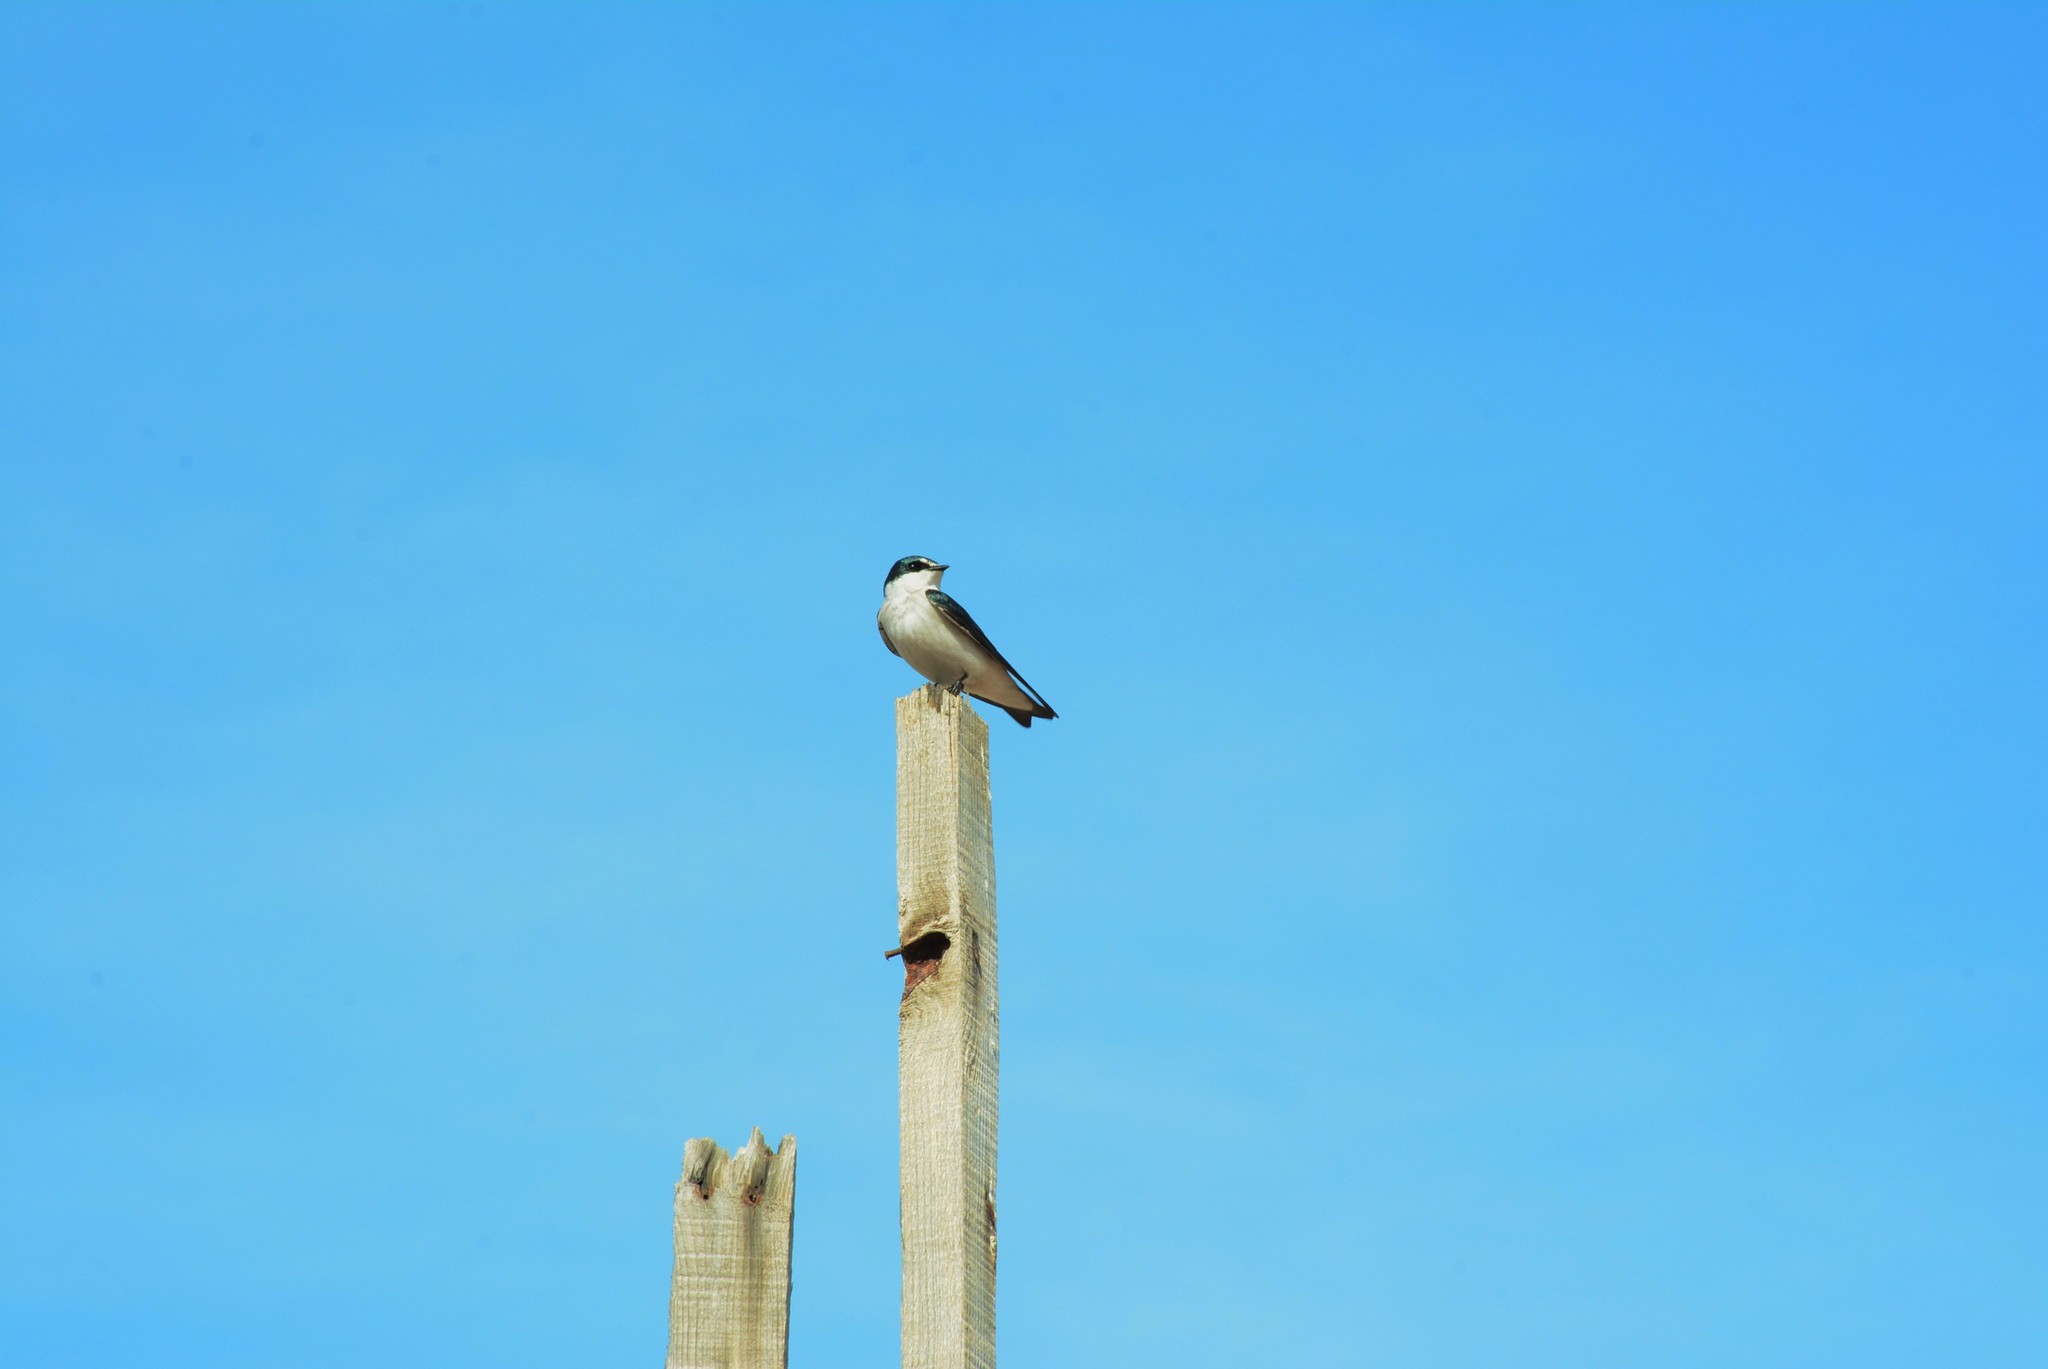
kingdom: Animalia
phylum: Chordata
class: Aves
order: Passeriformes
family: Hirundinidae
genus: Tachycineta
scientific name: Tachycineta albilinea
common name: Mangrove swallow
